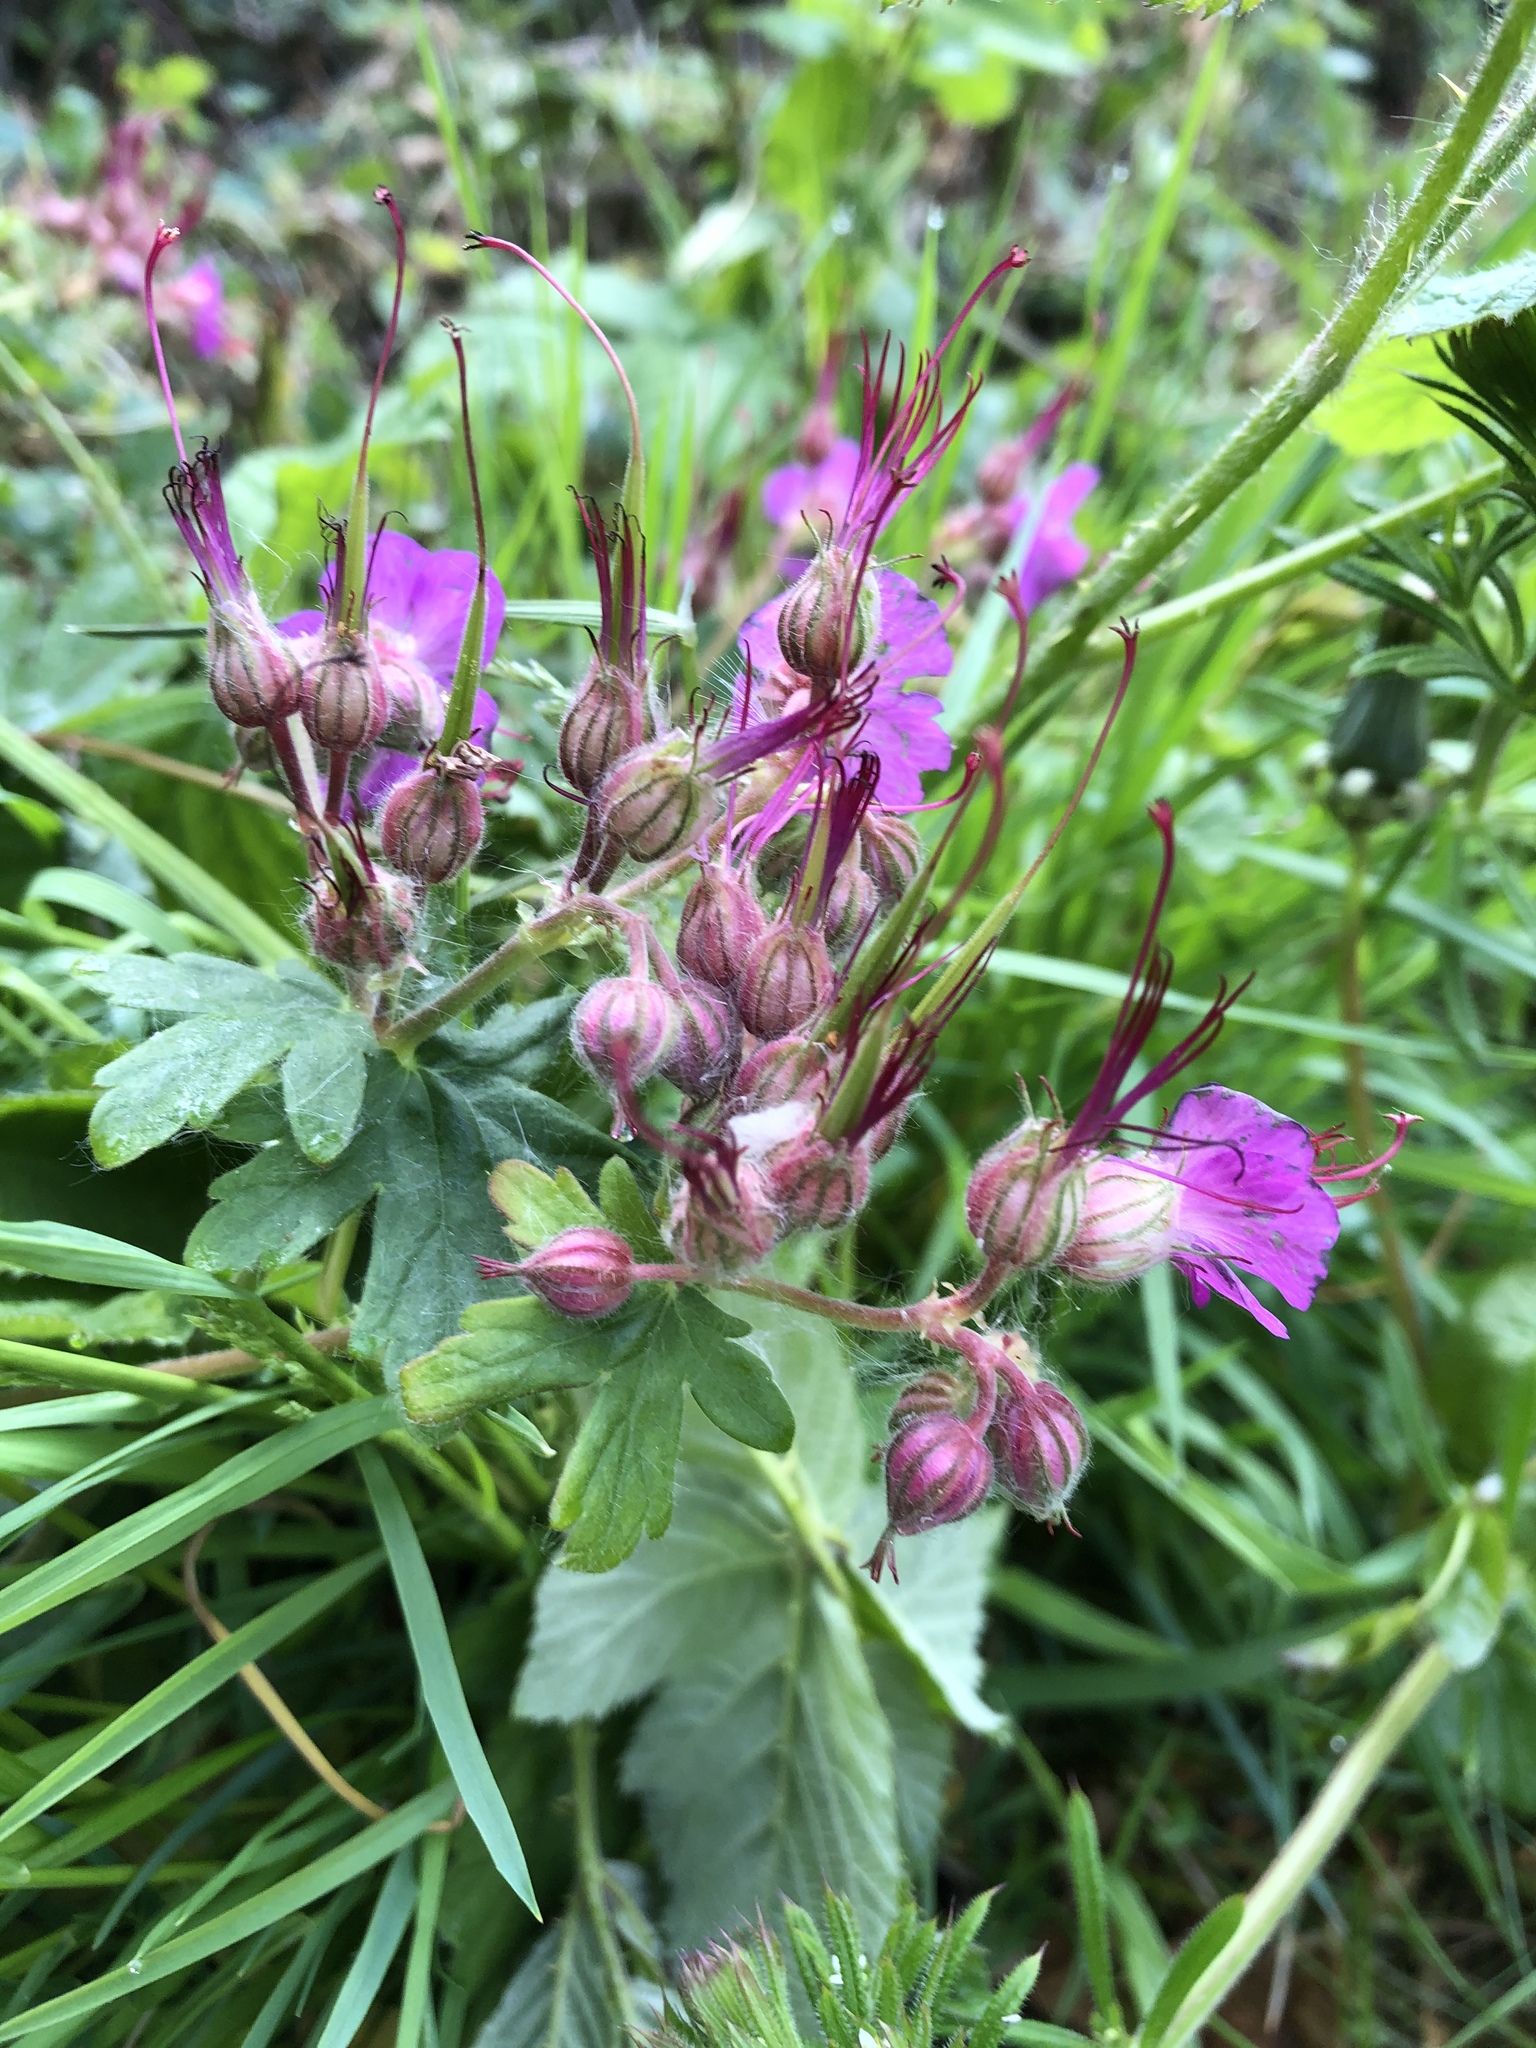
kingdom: Plantae
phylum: Tracheophyta
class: Magnoliopsida
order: Geraniales
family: Geraniaceae
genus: Geranium
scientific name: Geranium macrorrhizum
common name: Rock crane's-bill
